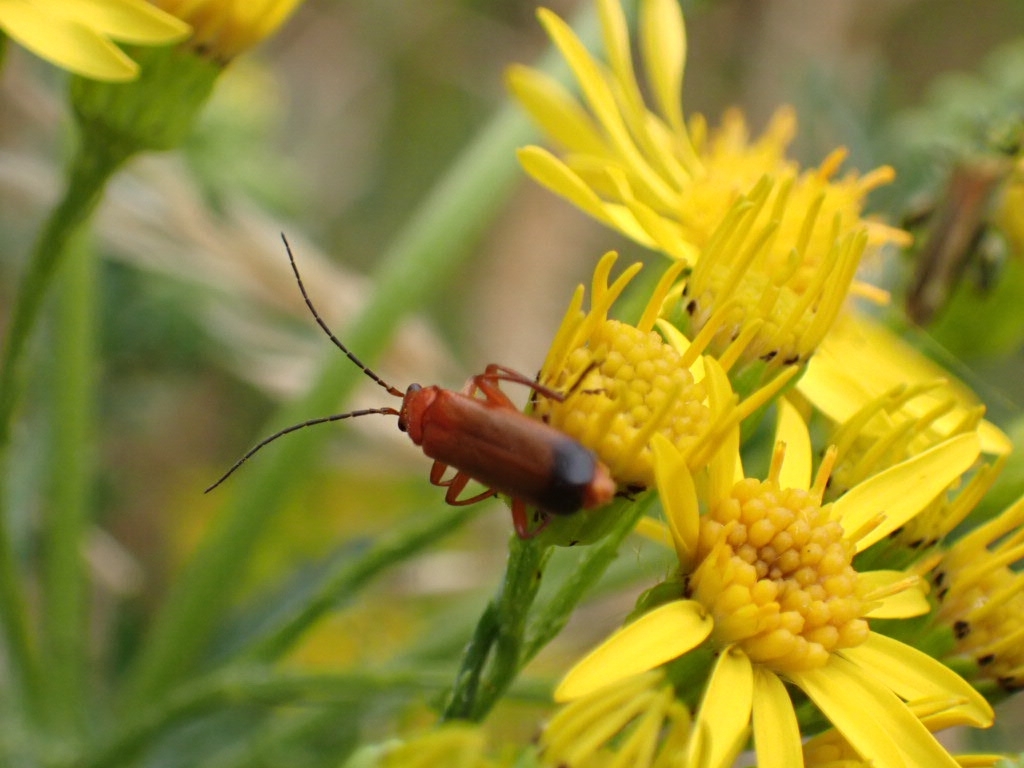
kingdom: Animalia
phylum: Arthropoda
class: Insecta
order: Coleoptera
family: Cantharidae
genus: Rhagonycha
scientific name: Rhagonycha fulva
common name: Common red soldier beetle
